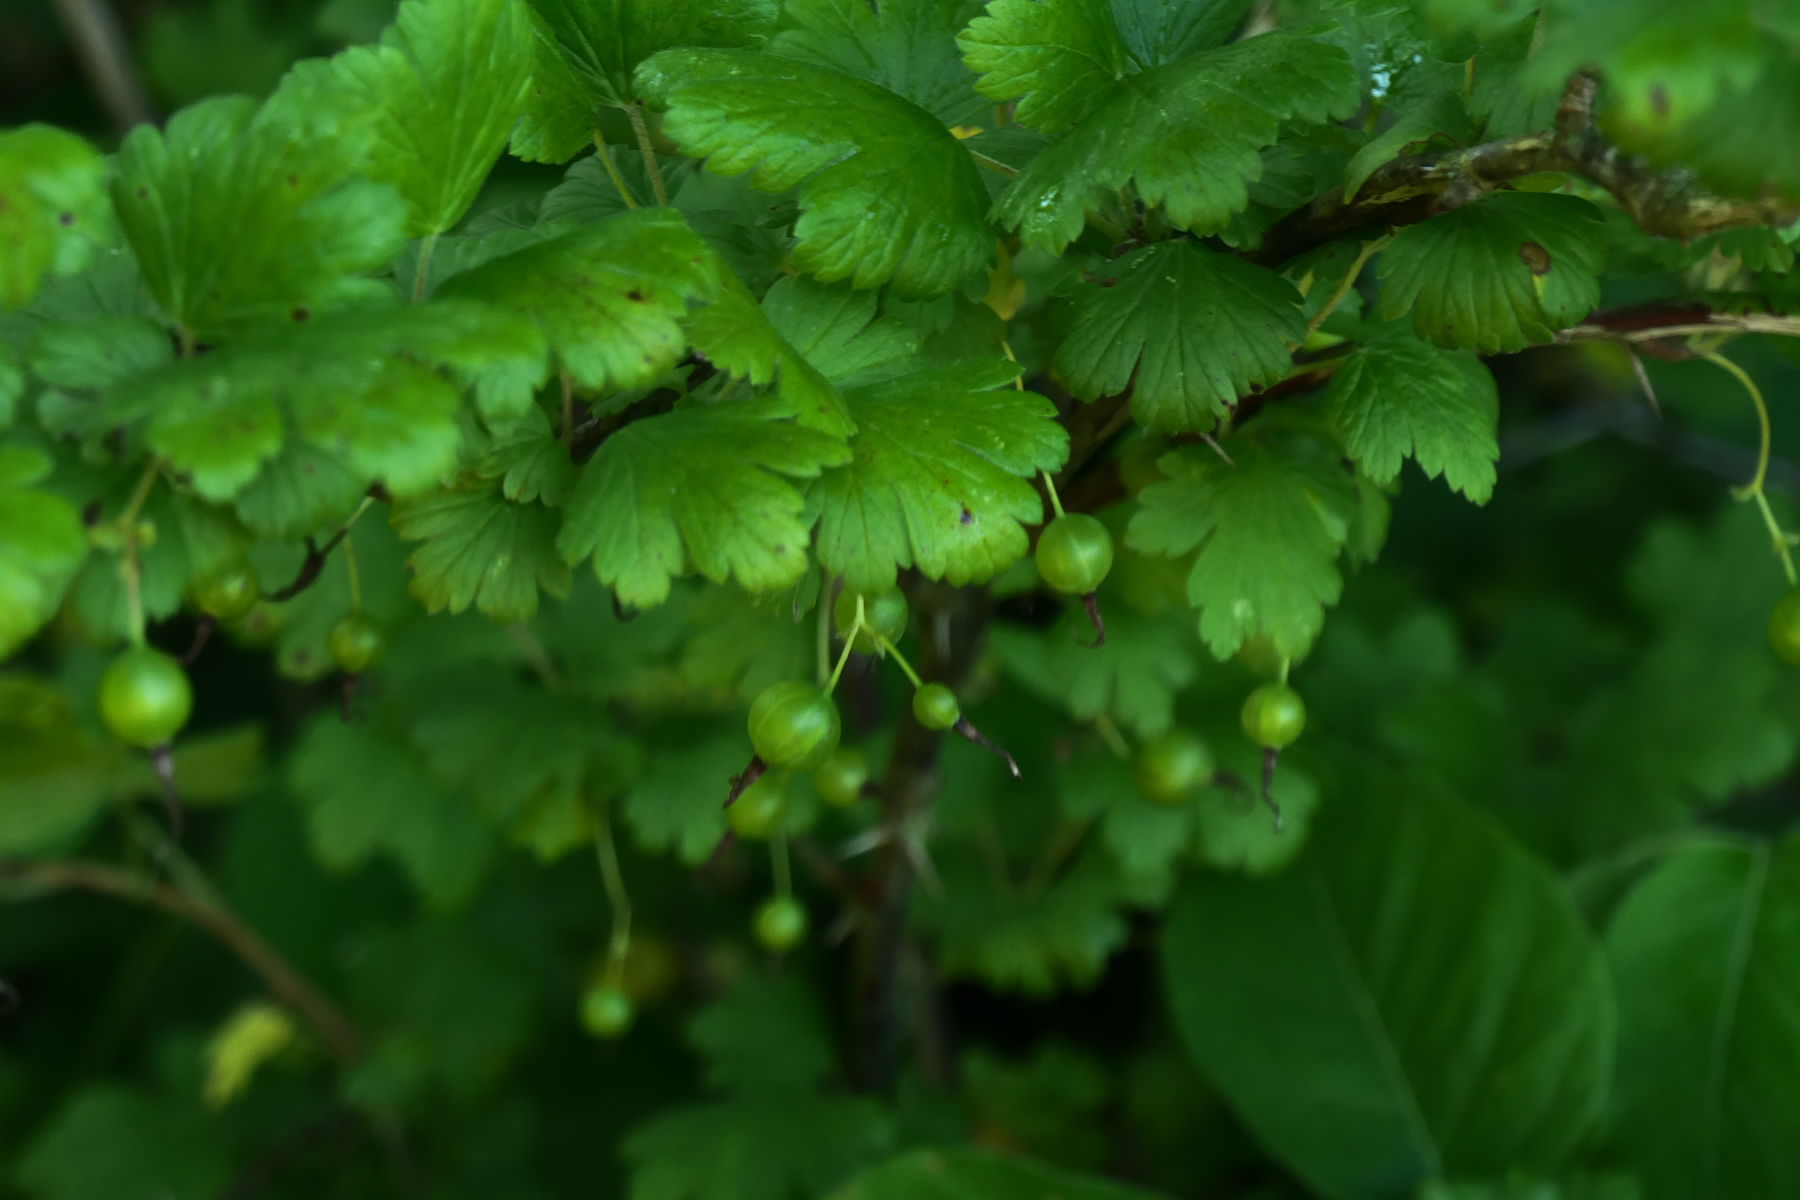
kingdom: Plantae
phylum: Tracheophyta
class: Magnoliopsida
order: Saxifragales
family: Grossulariaceae
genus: Ribes
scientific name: Ribes missouriense
